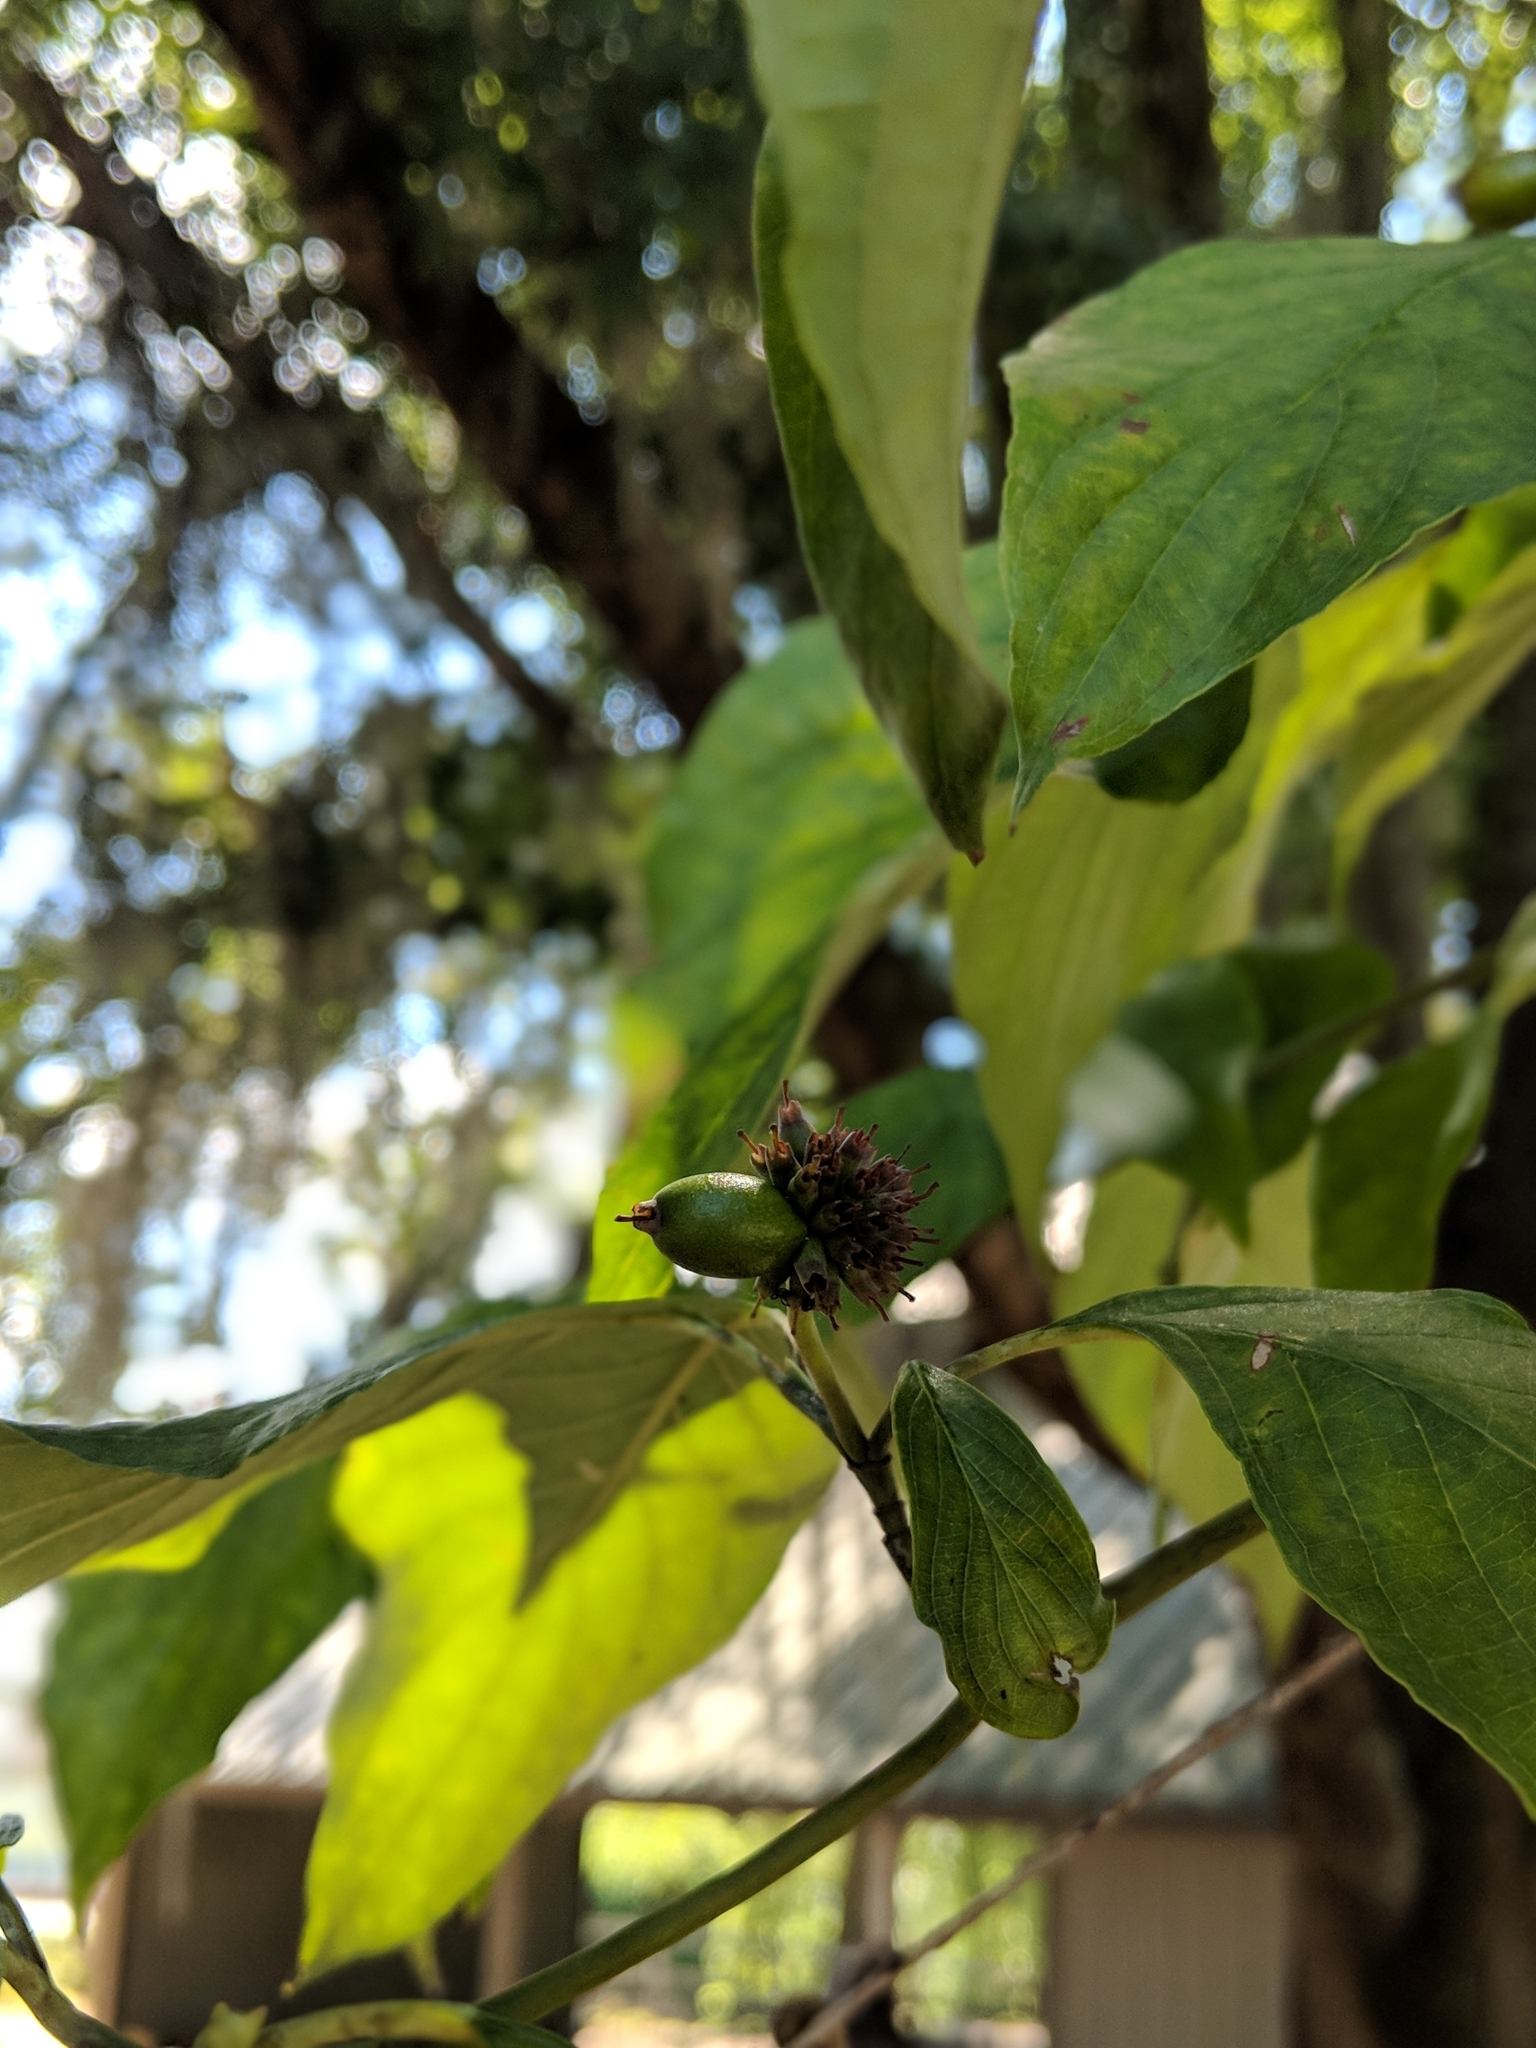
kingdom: Plantae
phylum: Tracheophyta
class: Magnoliopsida
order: Cornales
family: Cornaceae
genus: Cornus
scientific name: Cornus florida
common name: Flowering dogwood
